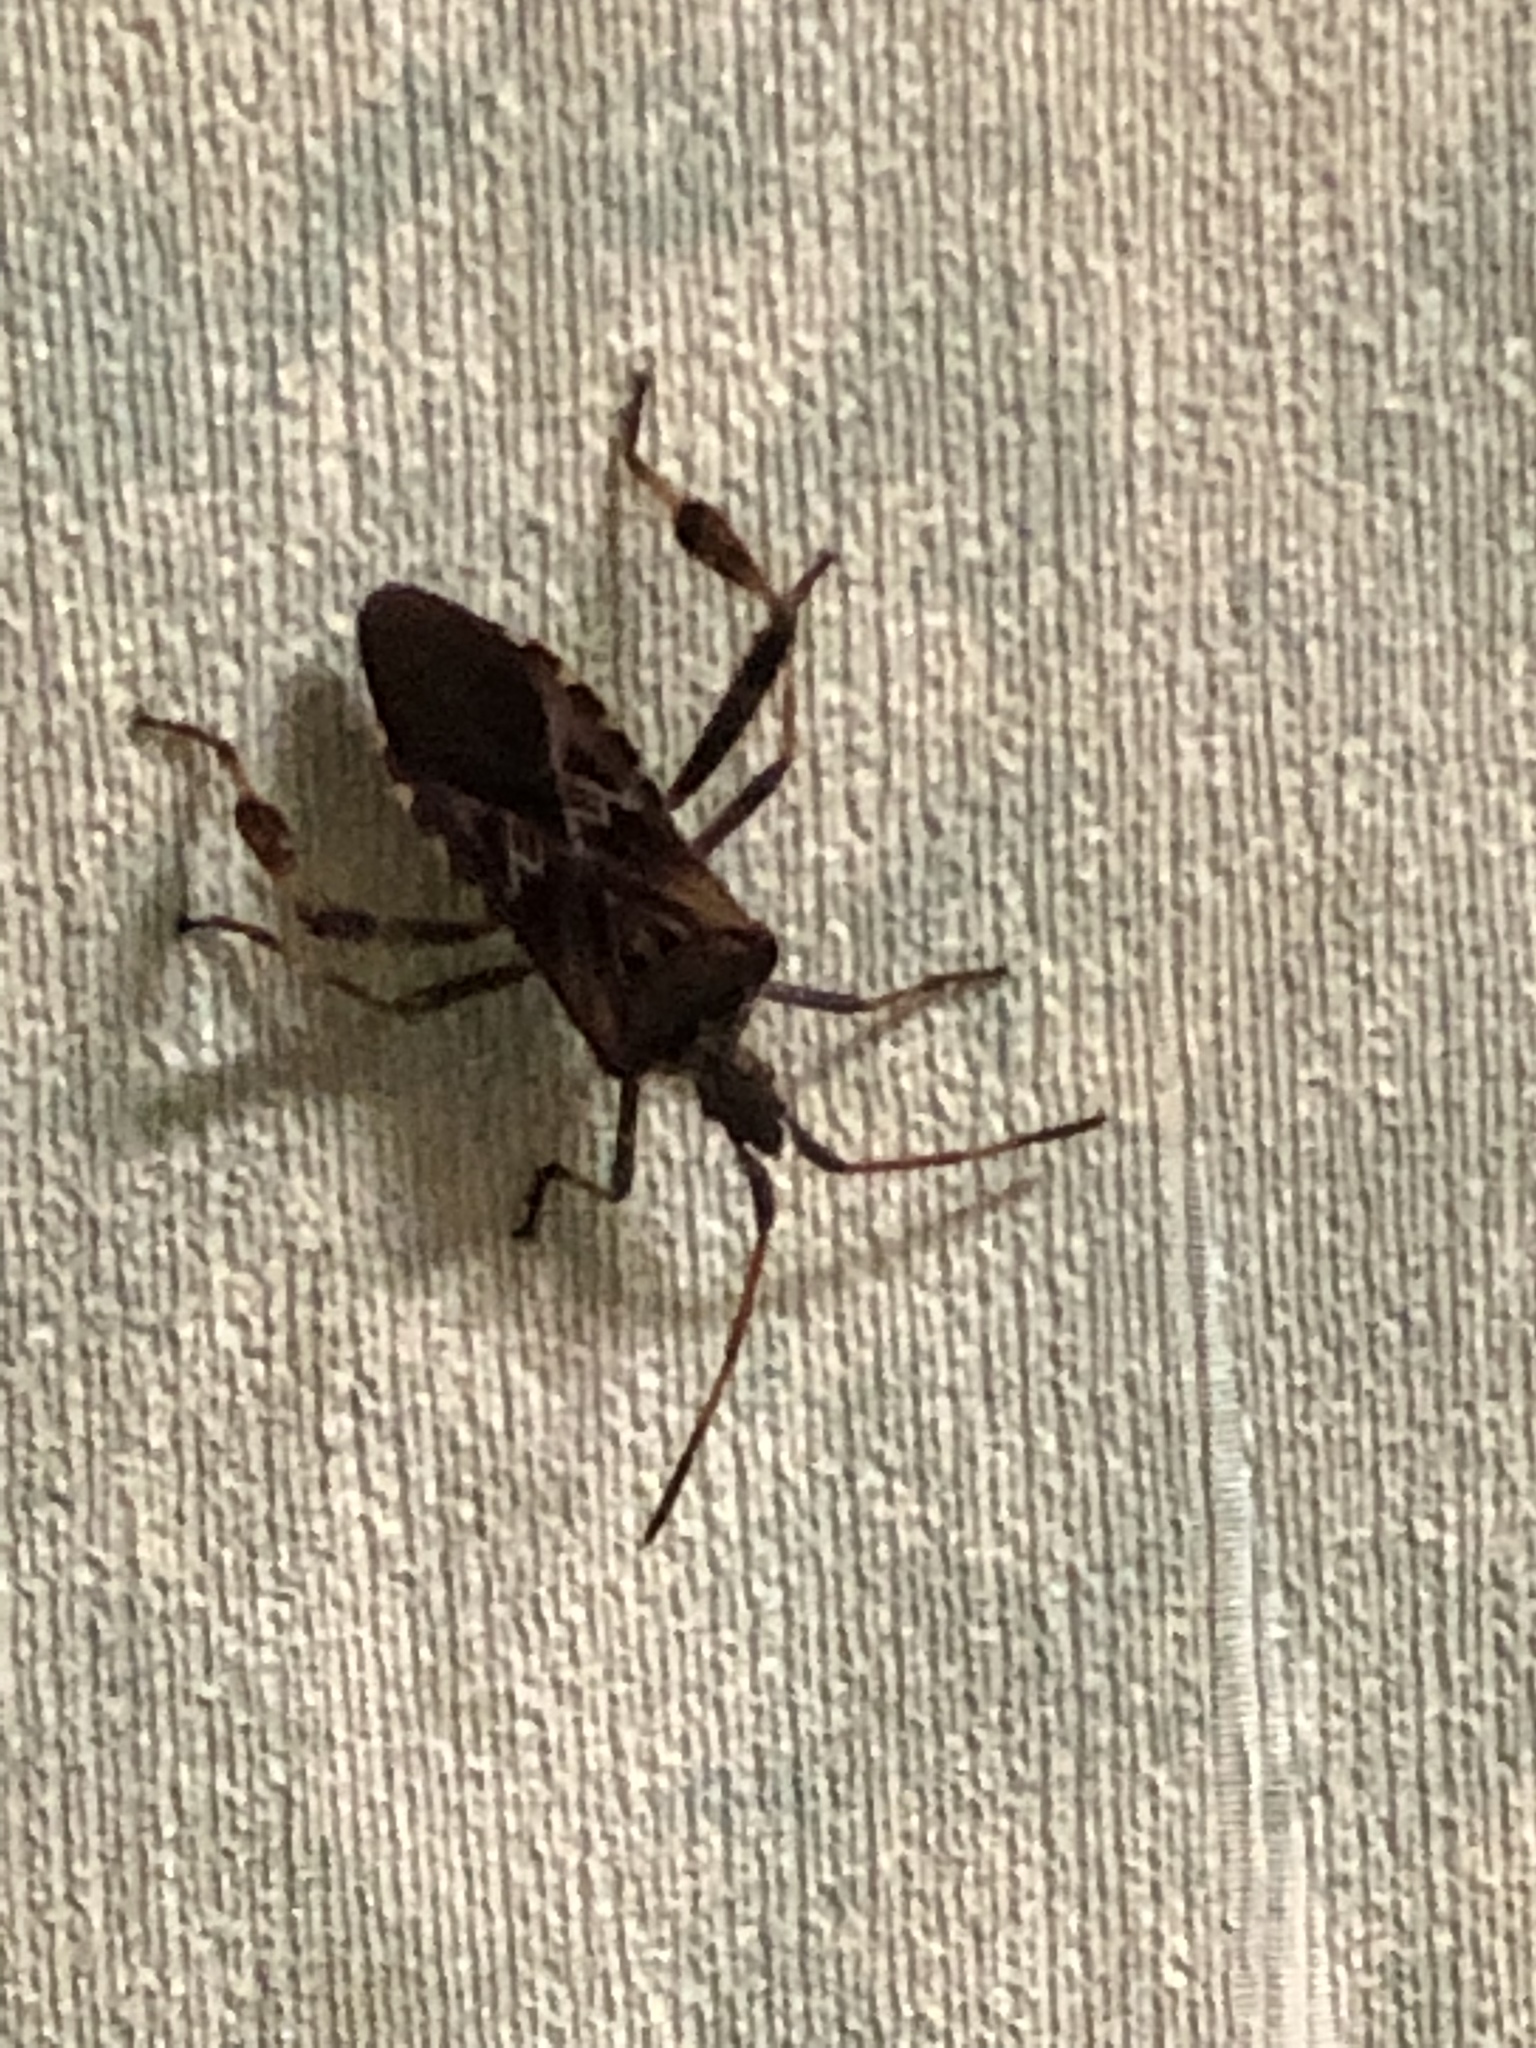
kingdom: Animalia
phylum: Arthropoda
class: Insecta
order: Hemiptera
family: Coreidae
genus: Leptoglossus
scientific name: Leptoglossus occidentalis
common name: Western conifer-seed bug
